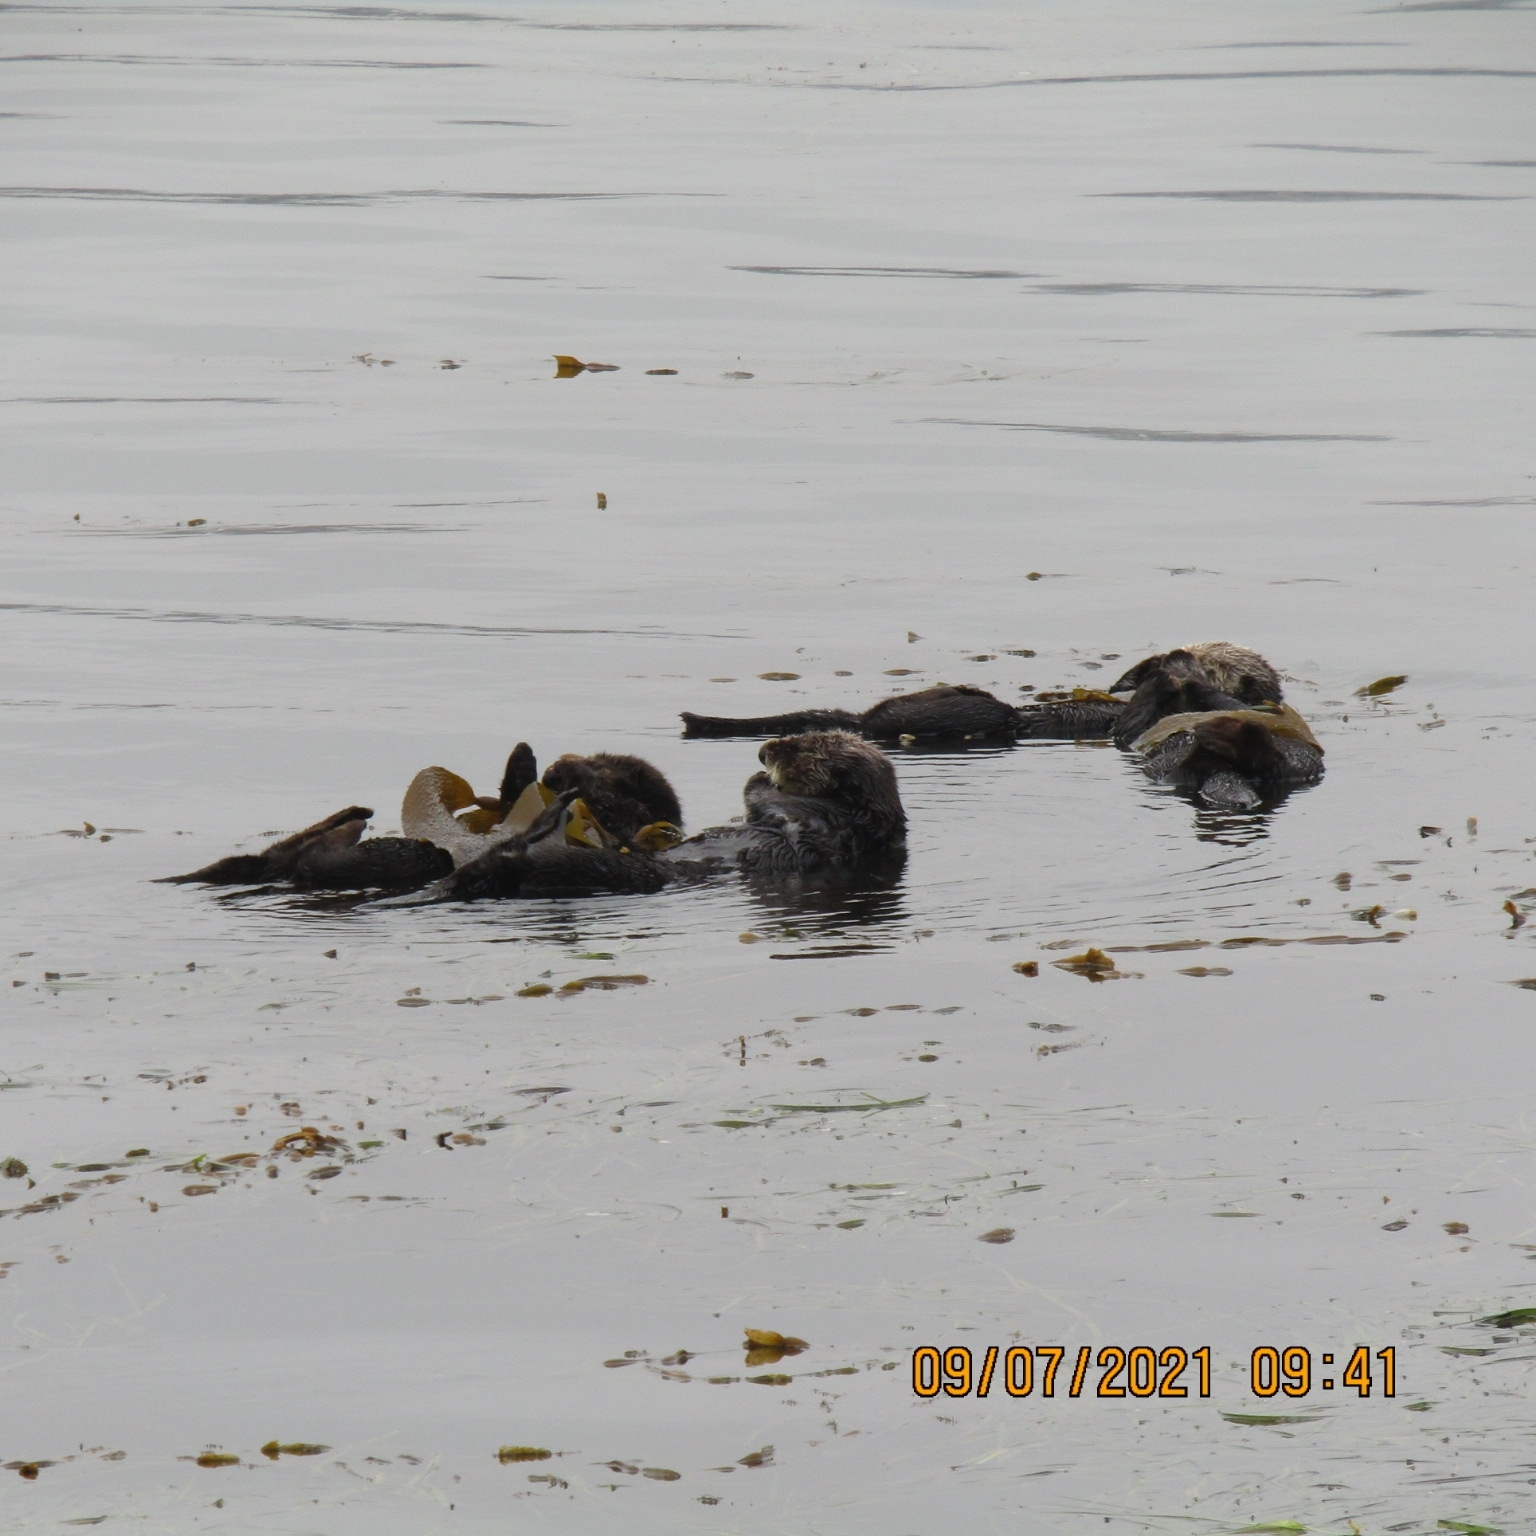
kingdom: Animalia
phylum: Chordata
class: Mammalia
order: Carnivora
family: Mustelidae
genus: Enhydra
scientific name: Enhydra lutris
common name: Sea otter
